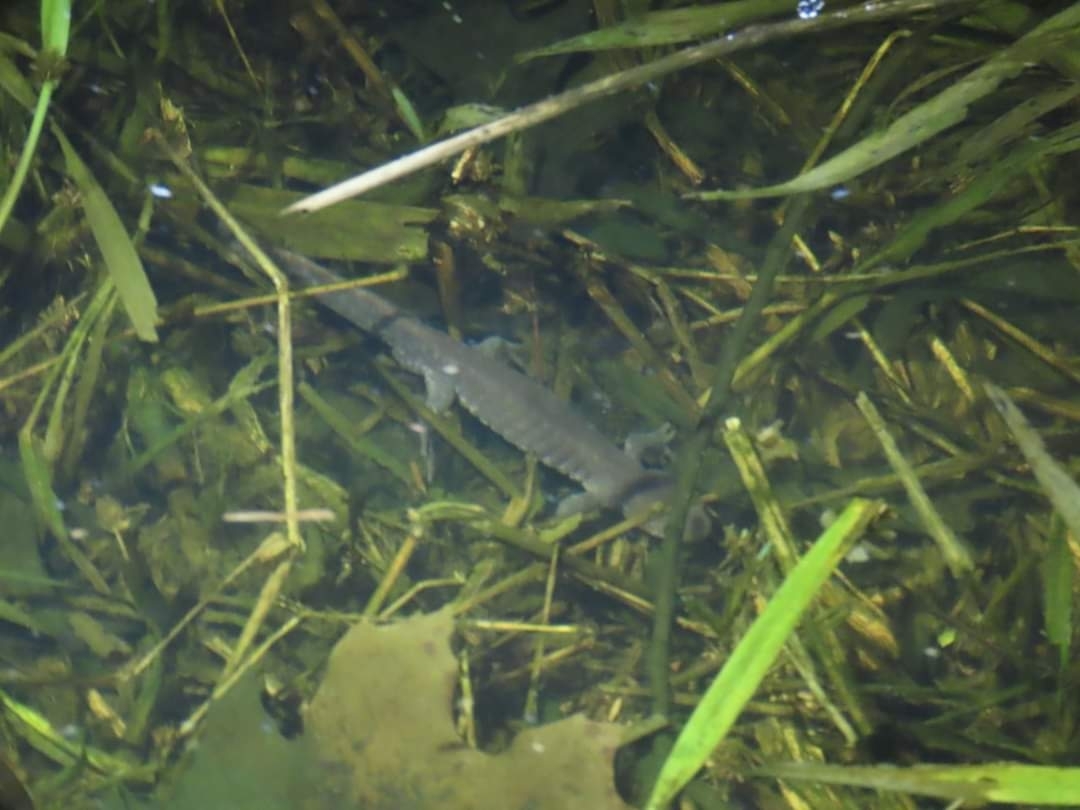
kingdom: Animalia
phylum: Chordata
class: Amphibia
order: Caudata
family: Ambystomatidae
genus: Ambystoma
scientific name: Ambystoma jeffersonianum
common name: Jefferson salamander
